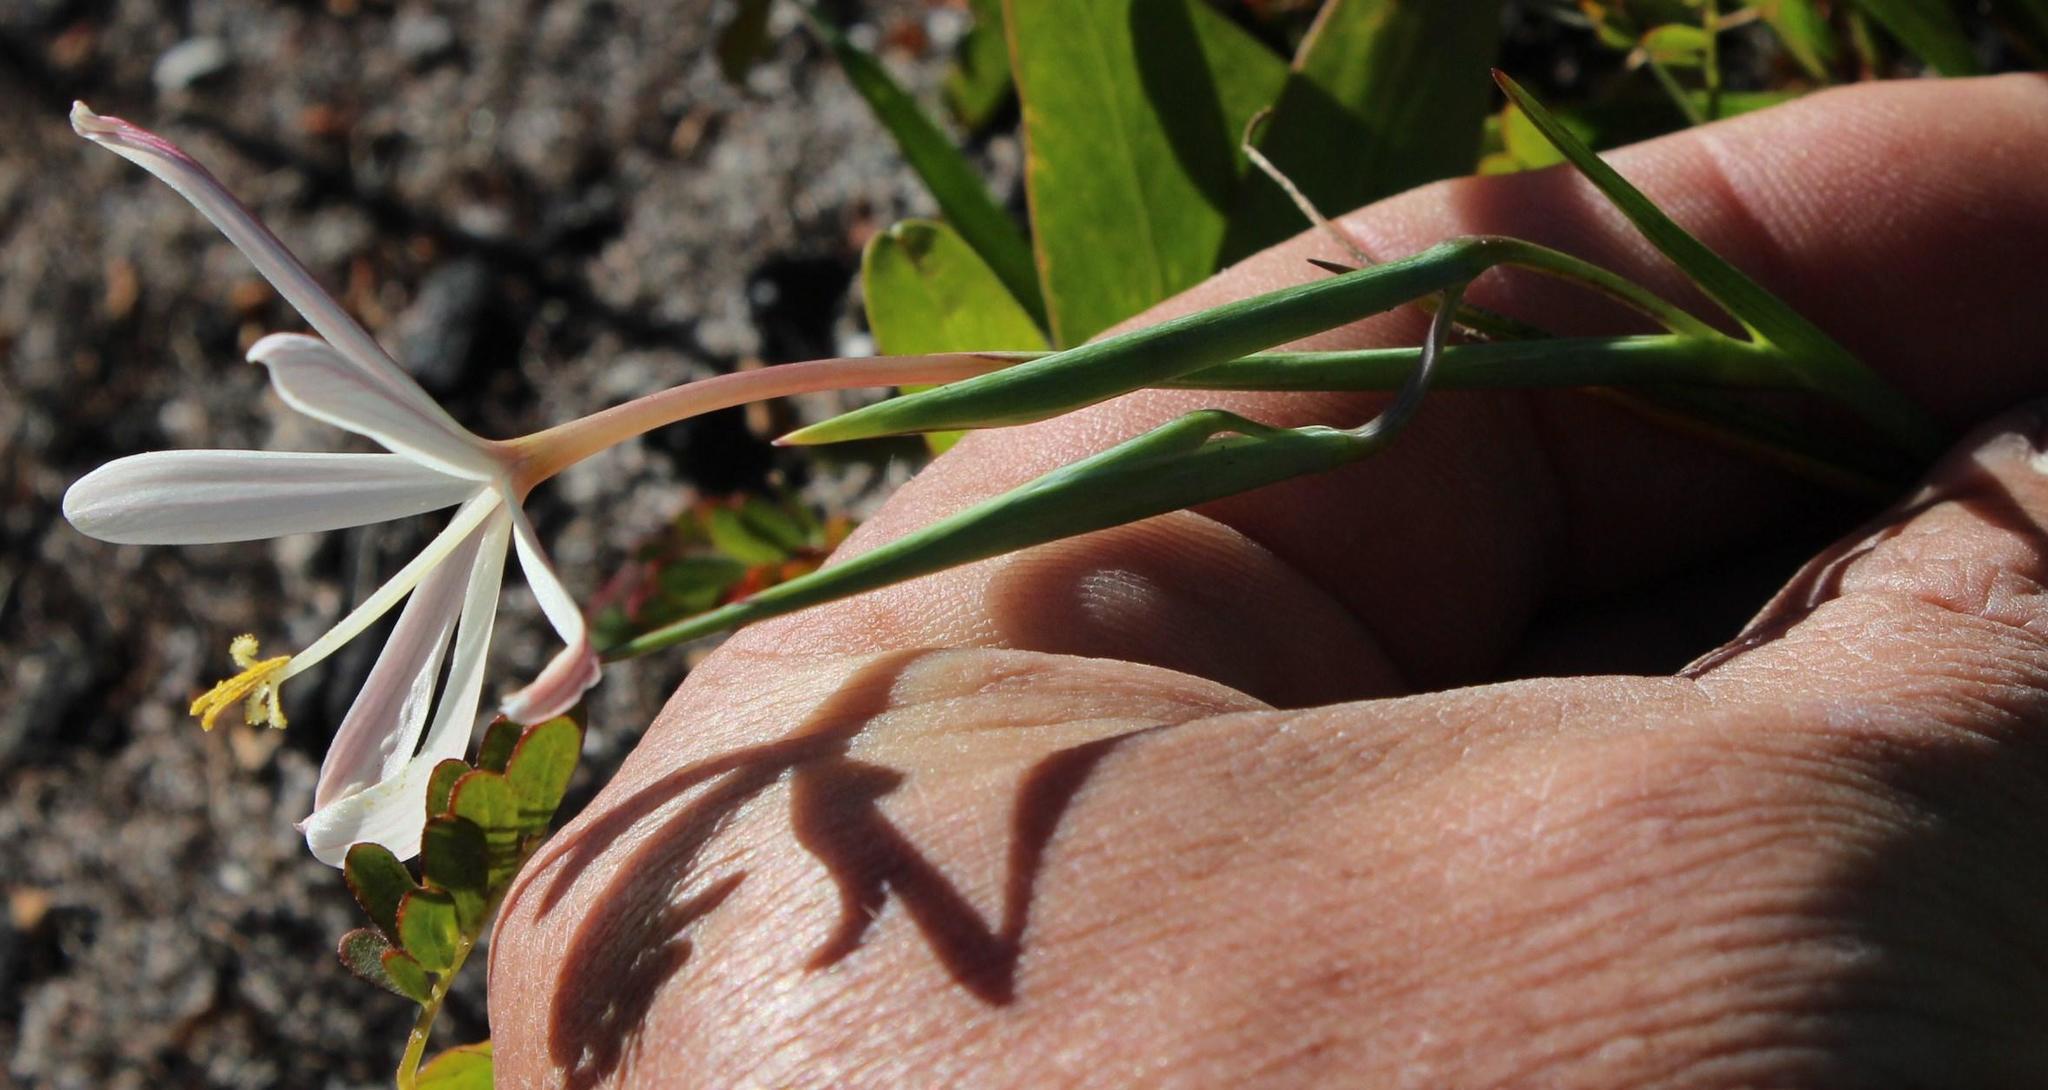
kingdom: Plantae
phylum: Tracheophyta
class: Liliopsida
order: Asparagales
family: Iridaceae
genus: Geissorhiza
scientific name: Geissorhiza tenella
